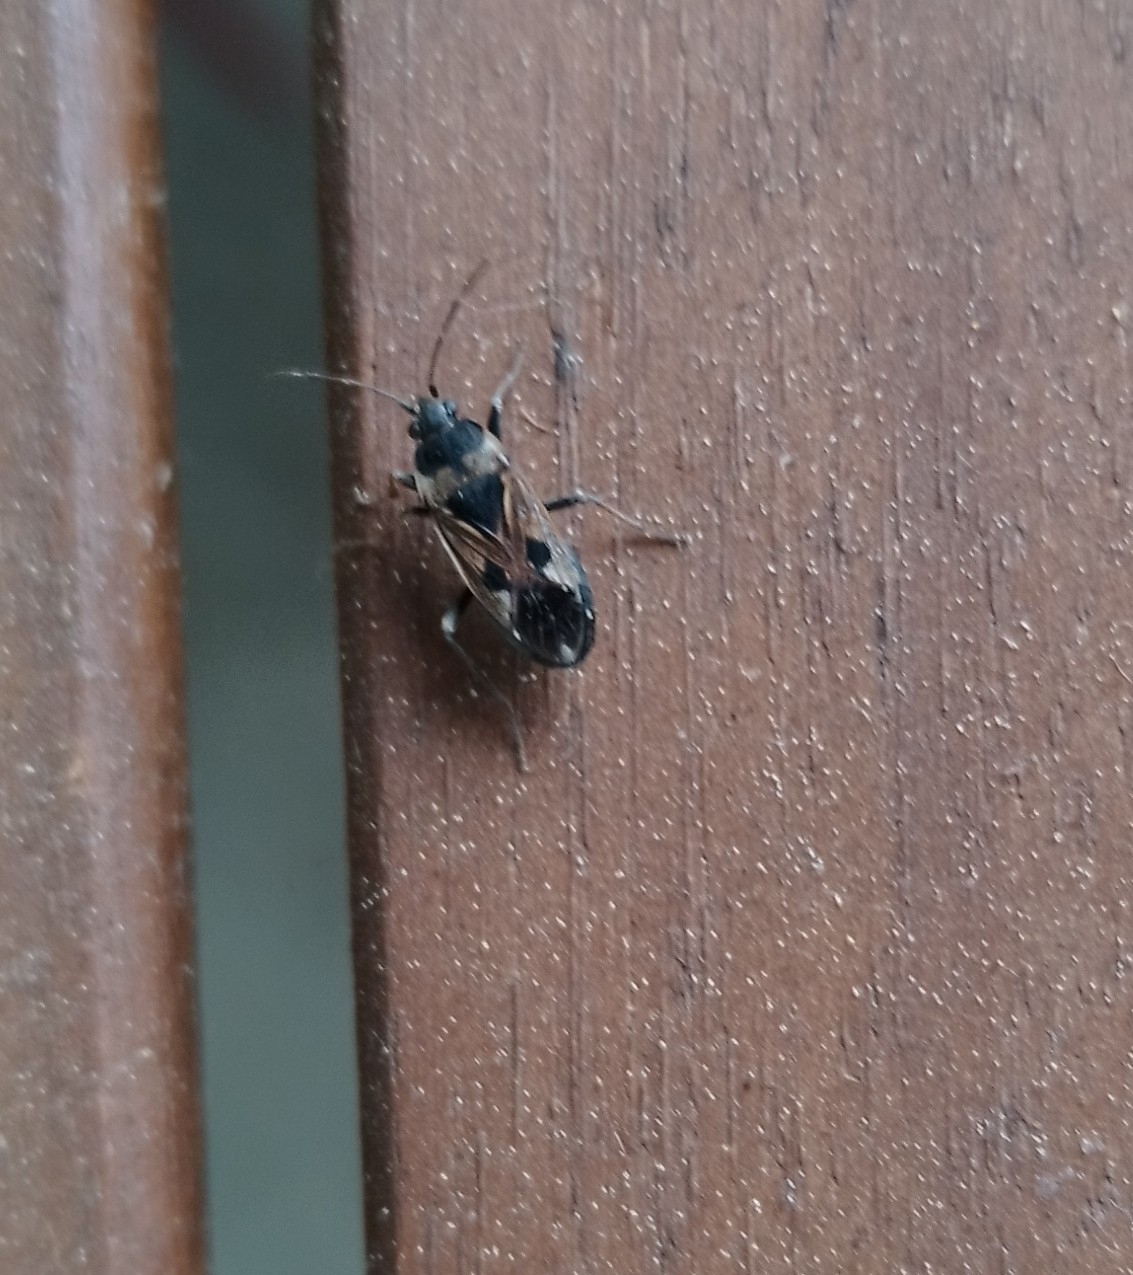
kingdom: Animalia
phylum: Arthropoda
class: Insecta
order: Hemiptera
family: Rhyparochromidae
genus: Rhyparochromus
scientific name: Rhyparochromus vulgaris
